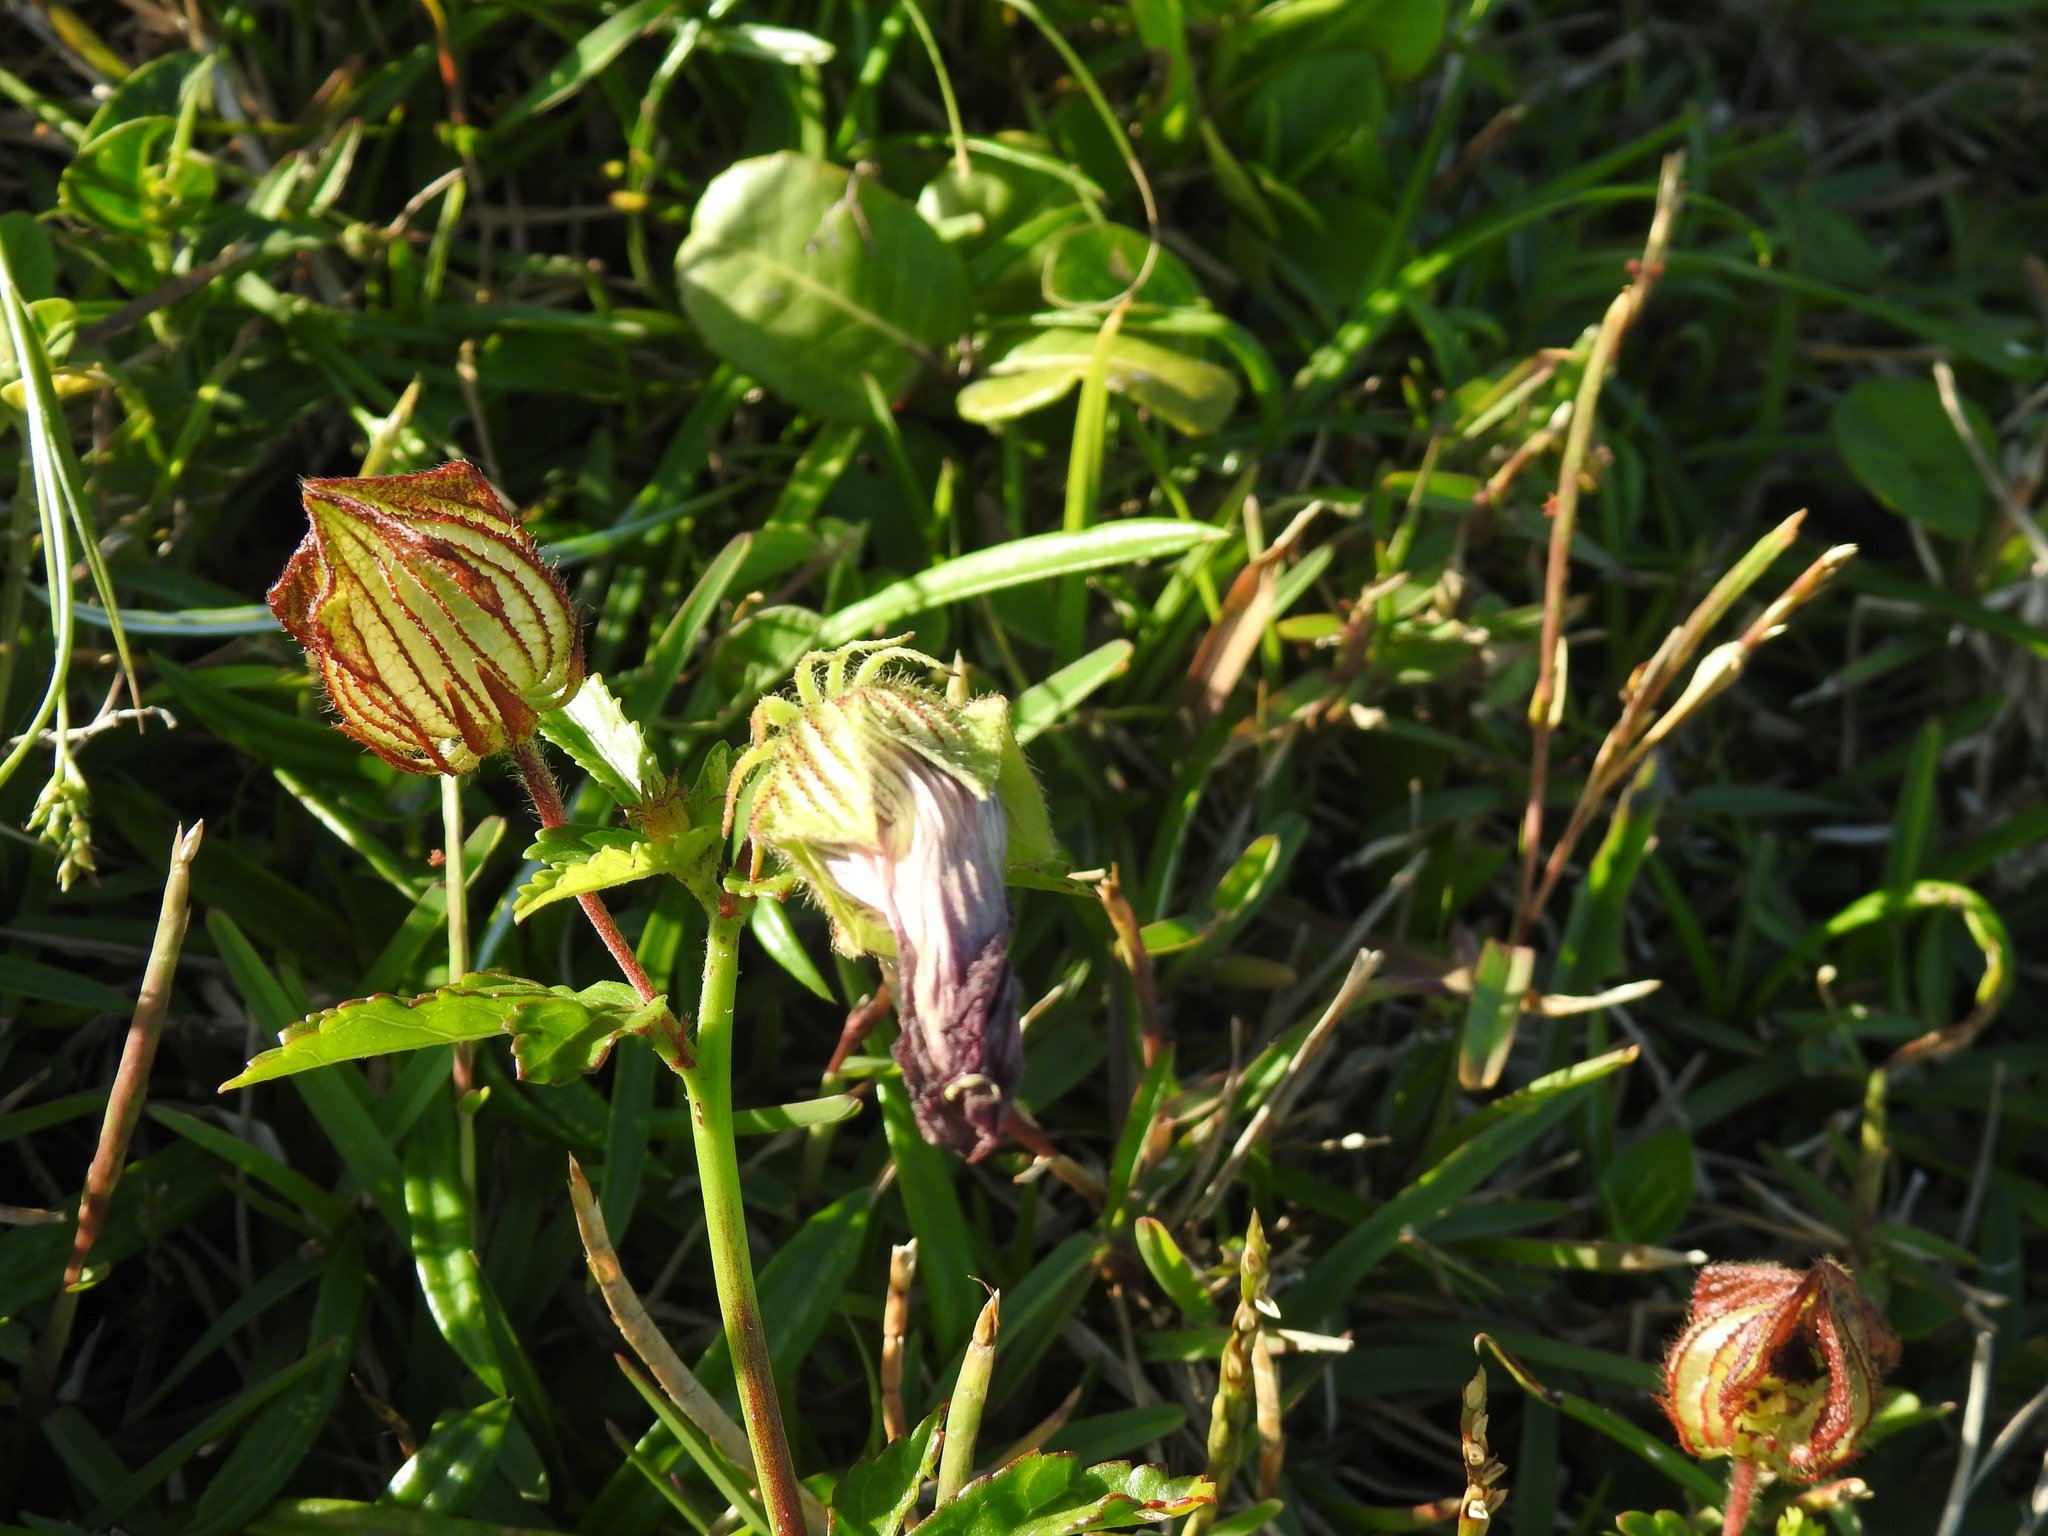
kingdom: Plantae
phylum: Tracheophyta
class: Magnoliopsida
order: Malvales
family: Malvaceae
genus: Hibiscus
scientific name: Hibiscus trionum
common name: Bladder ketmia
